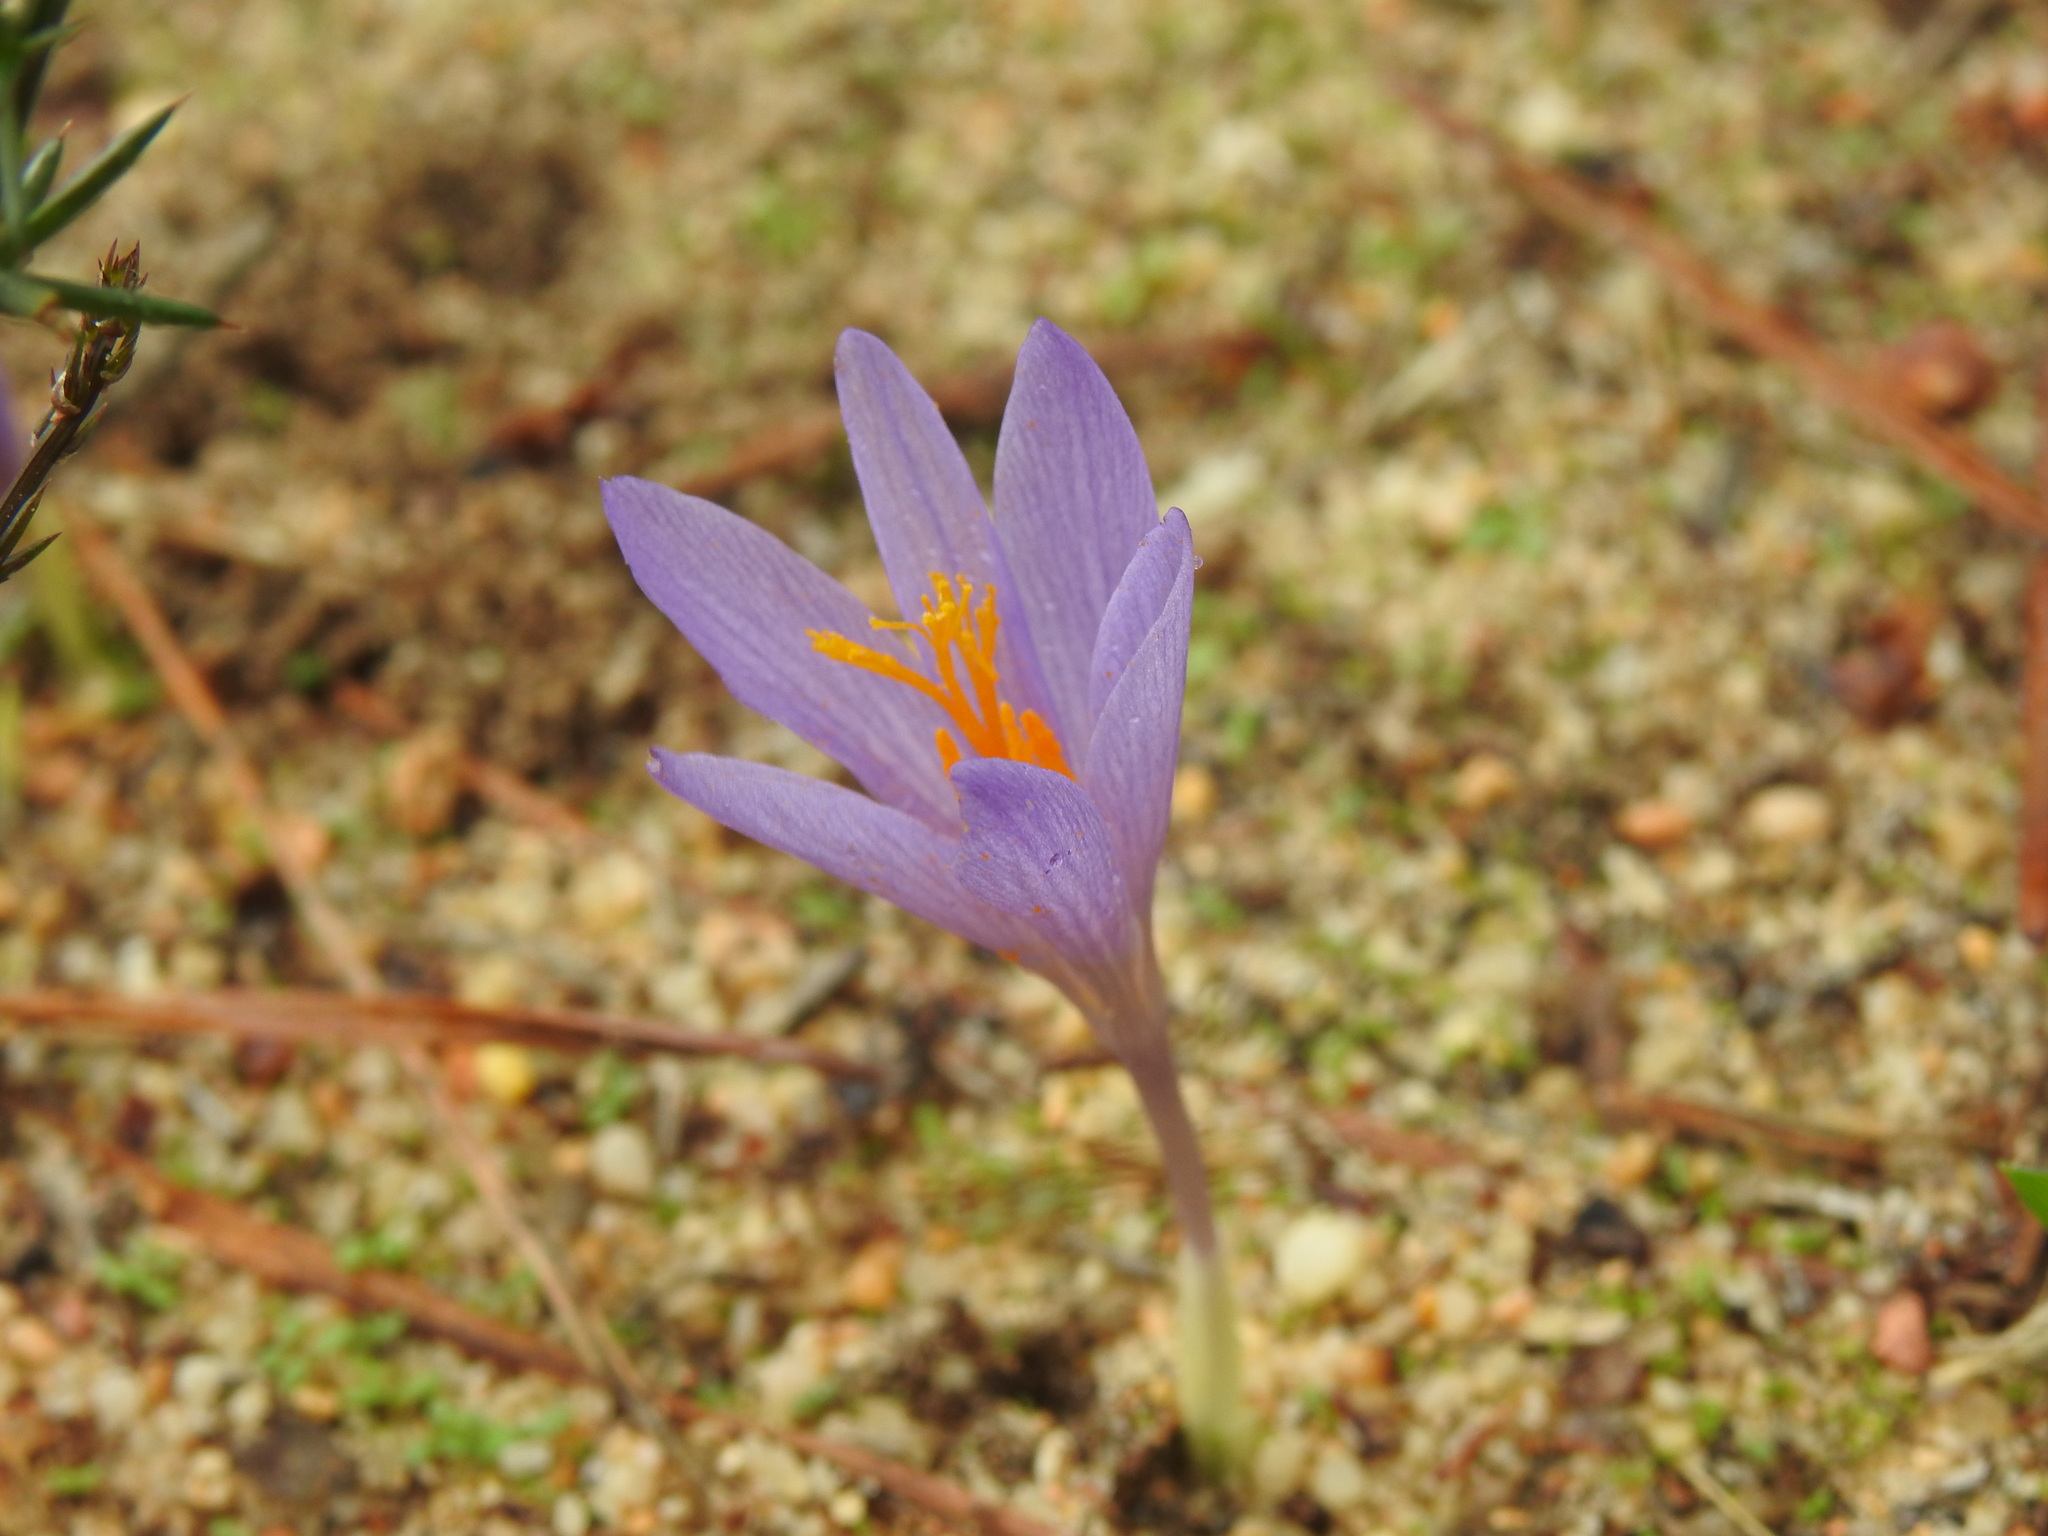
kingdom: Plantae
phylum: Tracheophyta
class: Liliopsida
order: Asparagales
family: Iridaceae
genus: Crocus
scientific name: Crocus serotinus
